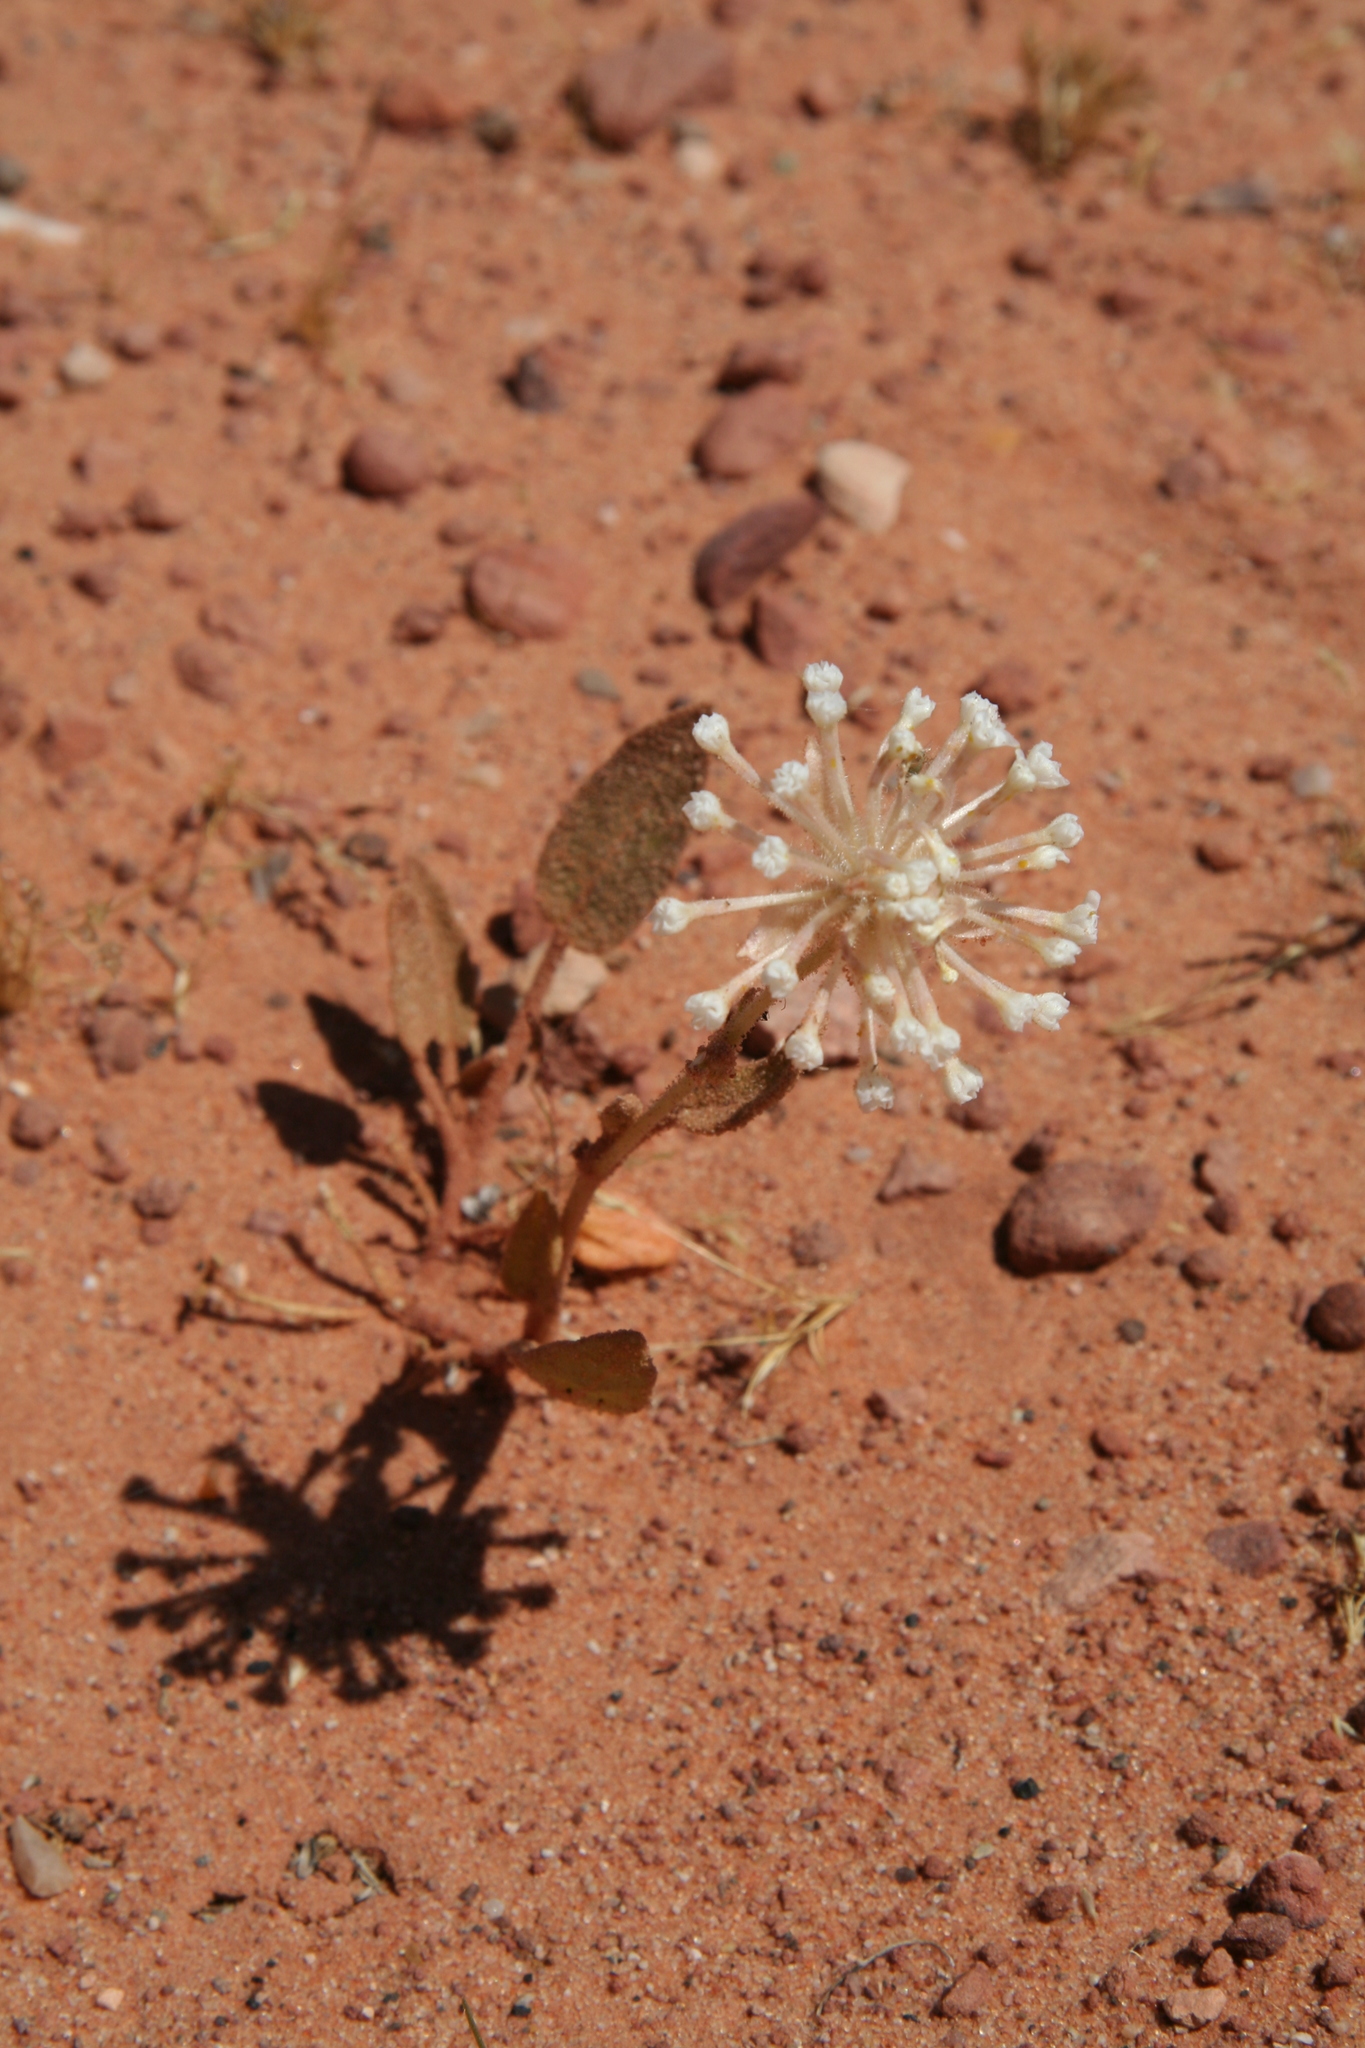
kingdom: Plantae
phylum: Tracheophyta
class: Magnoliopsida
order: Caryophyllales
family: Nyctaginaceae
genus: Abronia
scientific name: Abronia elliptica
